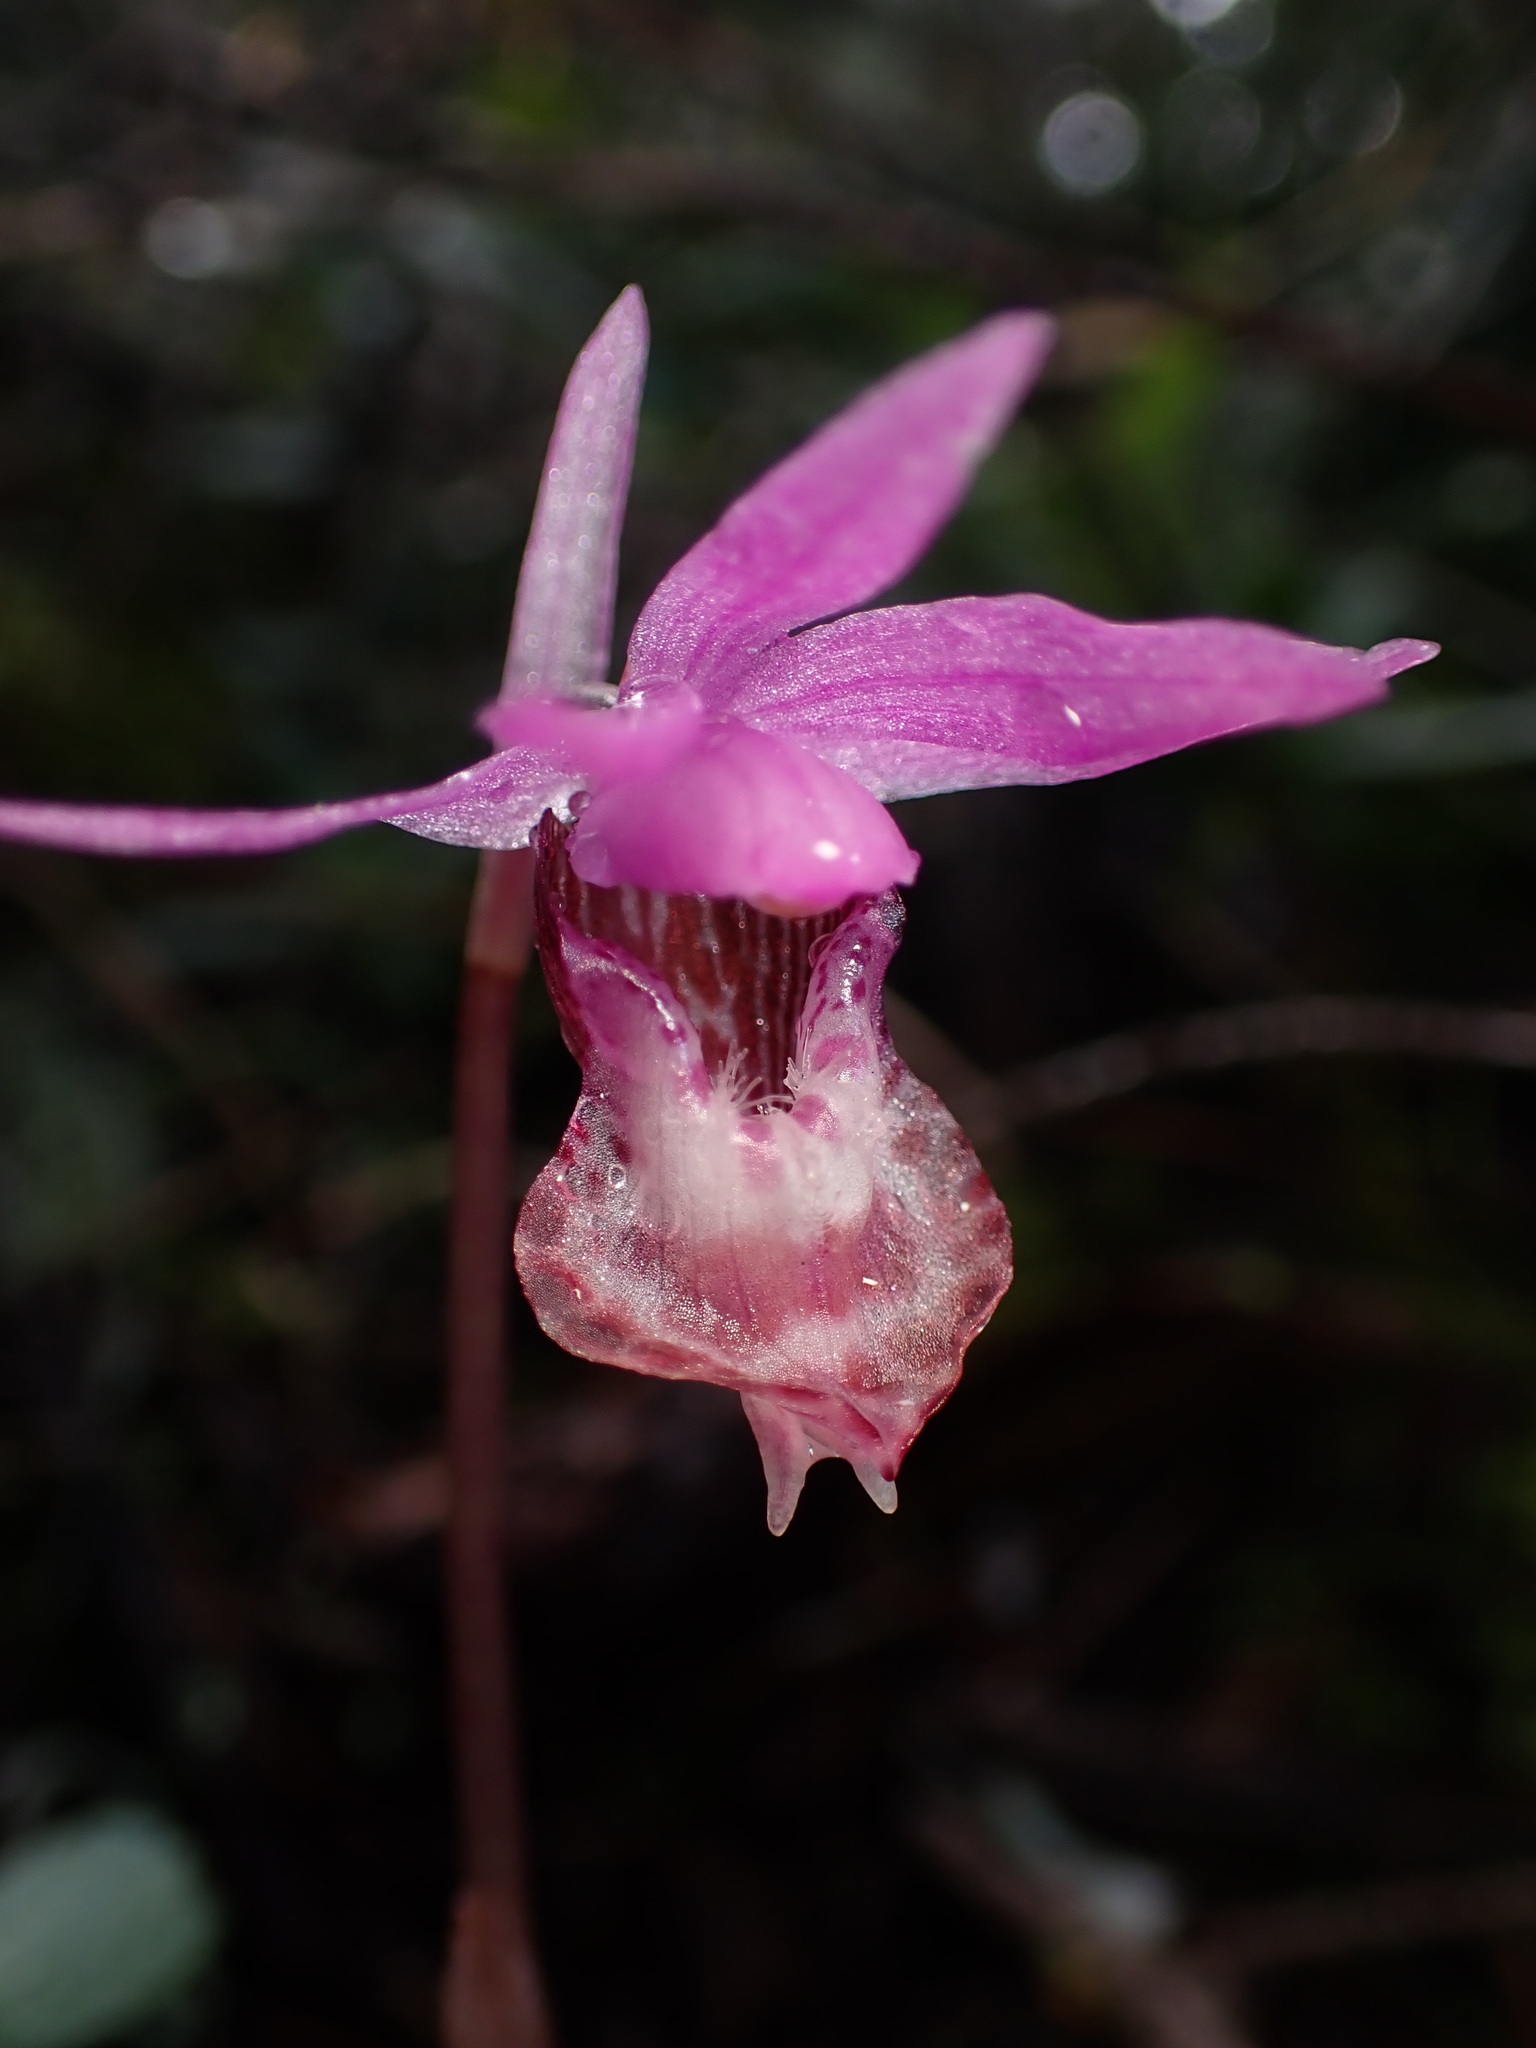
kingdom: Plantae
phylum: Tracheophyta
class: Liliopsida
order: Asparagales
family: Orchidaceae
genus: Calypso
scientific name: Calypso bulbosa
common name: Calypso
